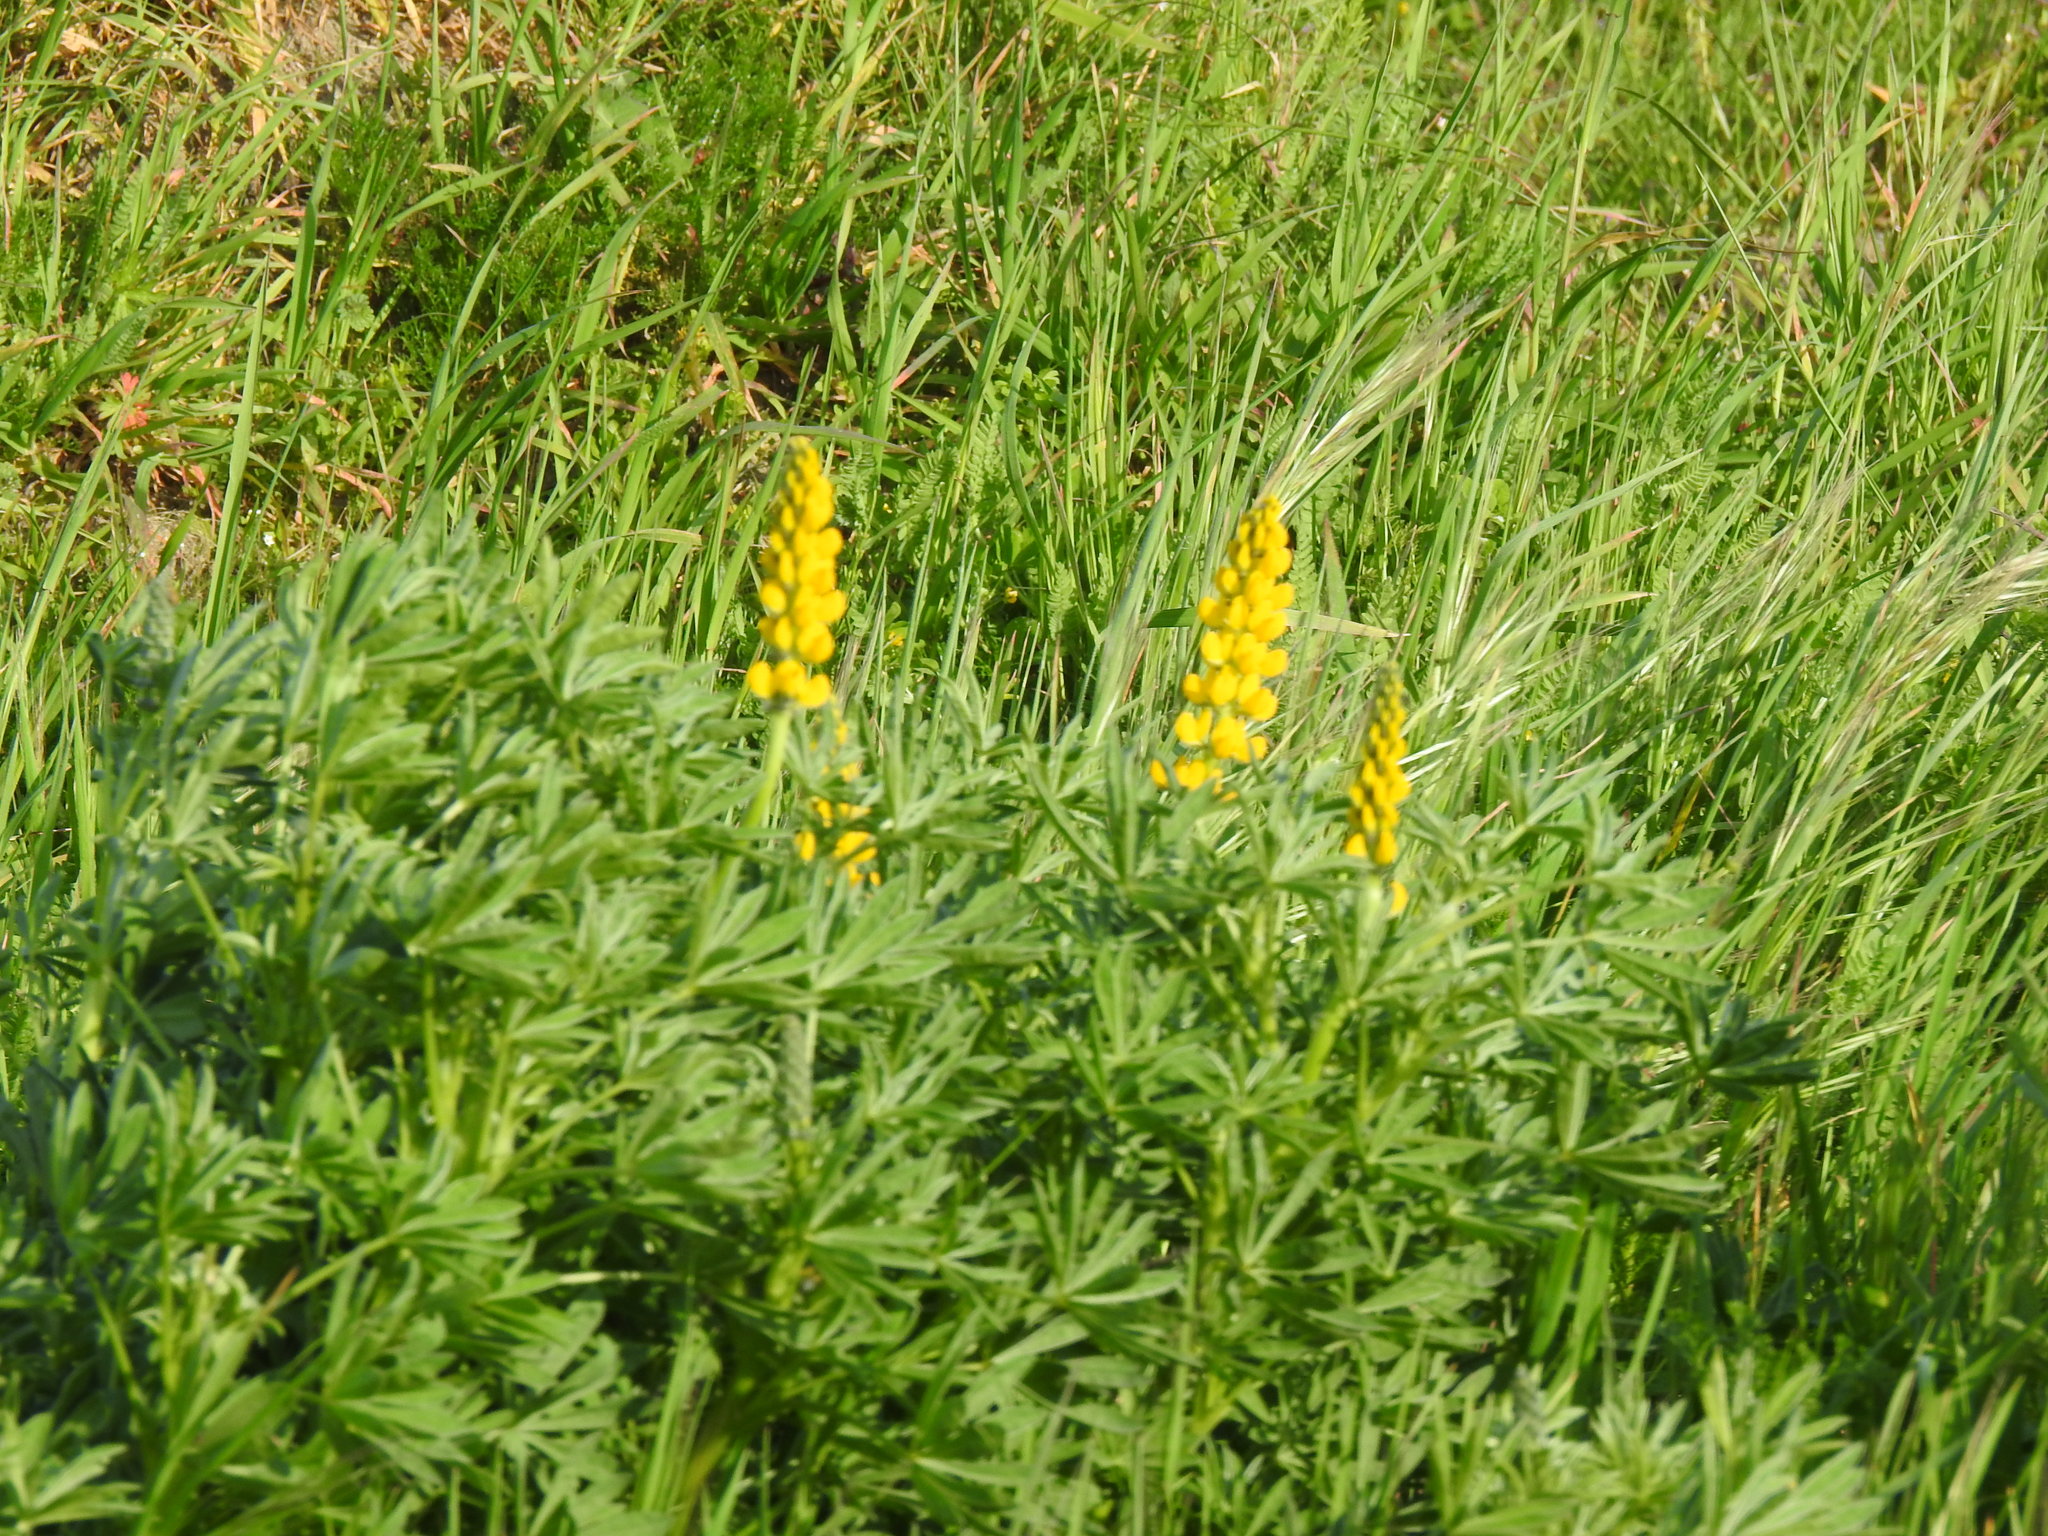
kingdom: Plantae
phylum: Tracheophyta
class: Magnoliopsida
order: Fabales
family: Fabaceae
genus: Lupinus
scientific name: Lupinus luteus
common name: European yellow lupine
